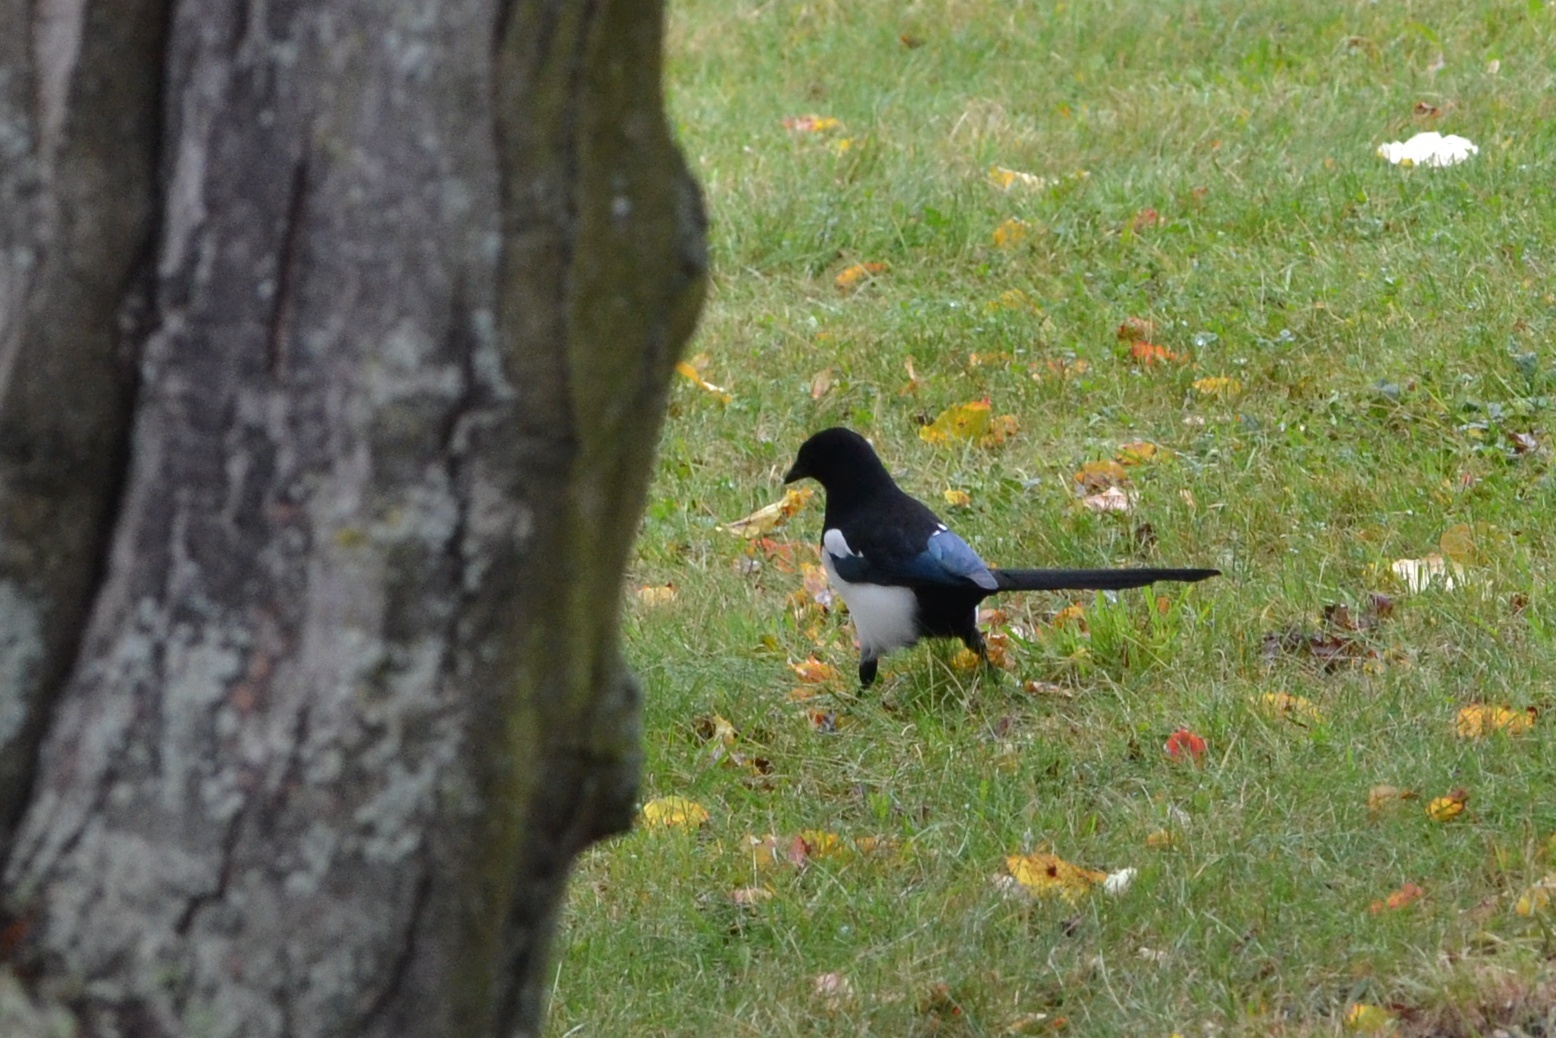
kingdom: Animalia
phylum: Chordata
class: Aves
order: Passeriformes
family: Corvidae
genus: Pica
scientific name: Pica pica
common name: Eurasian magpie
